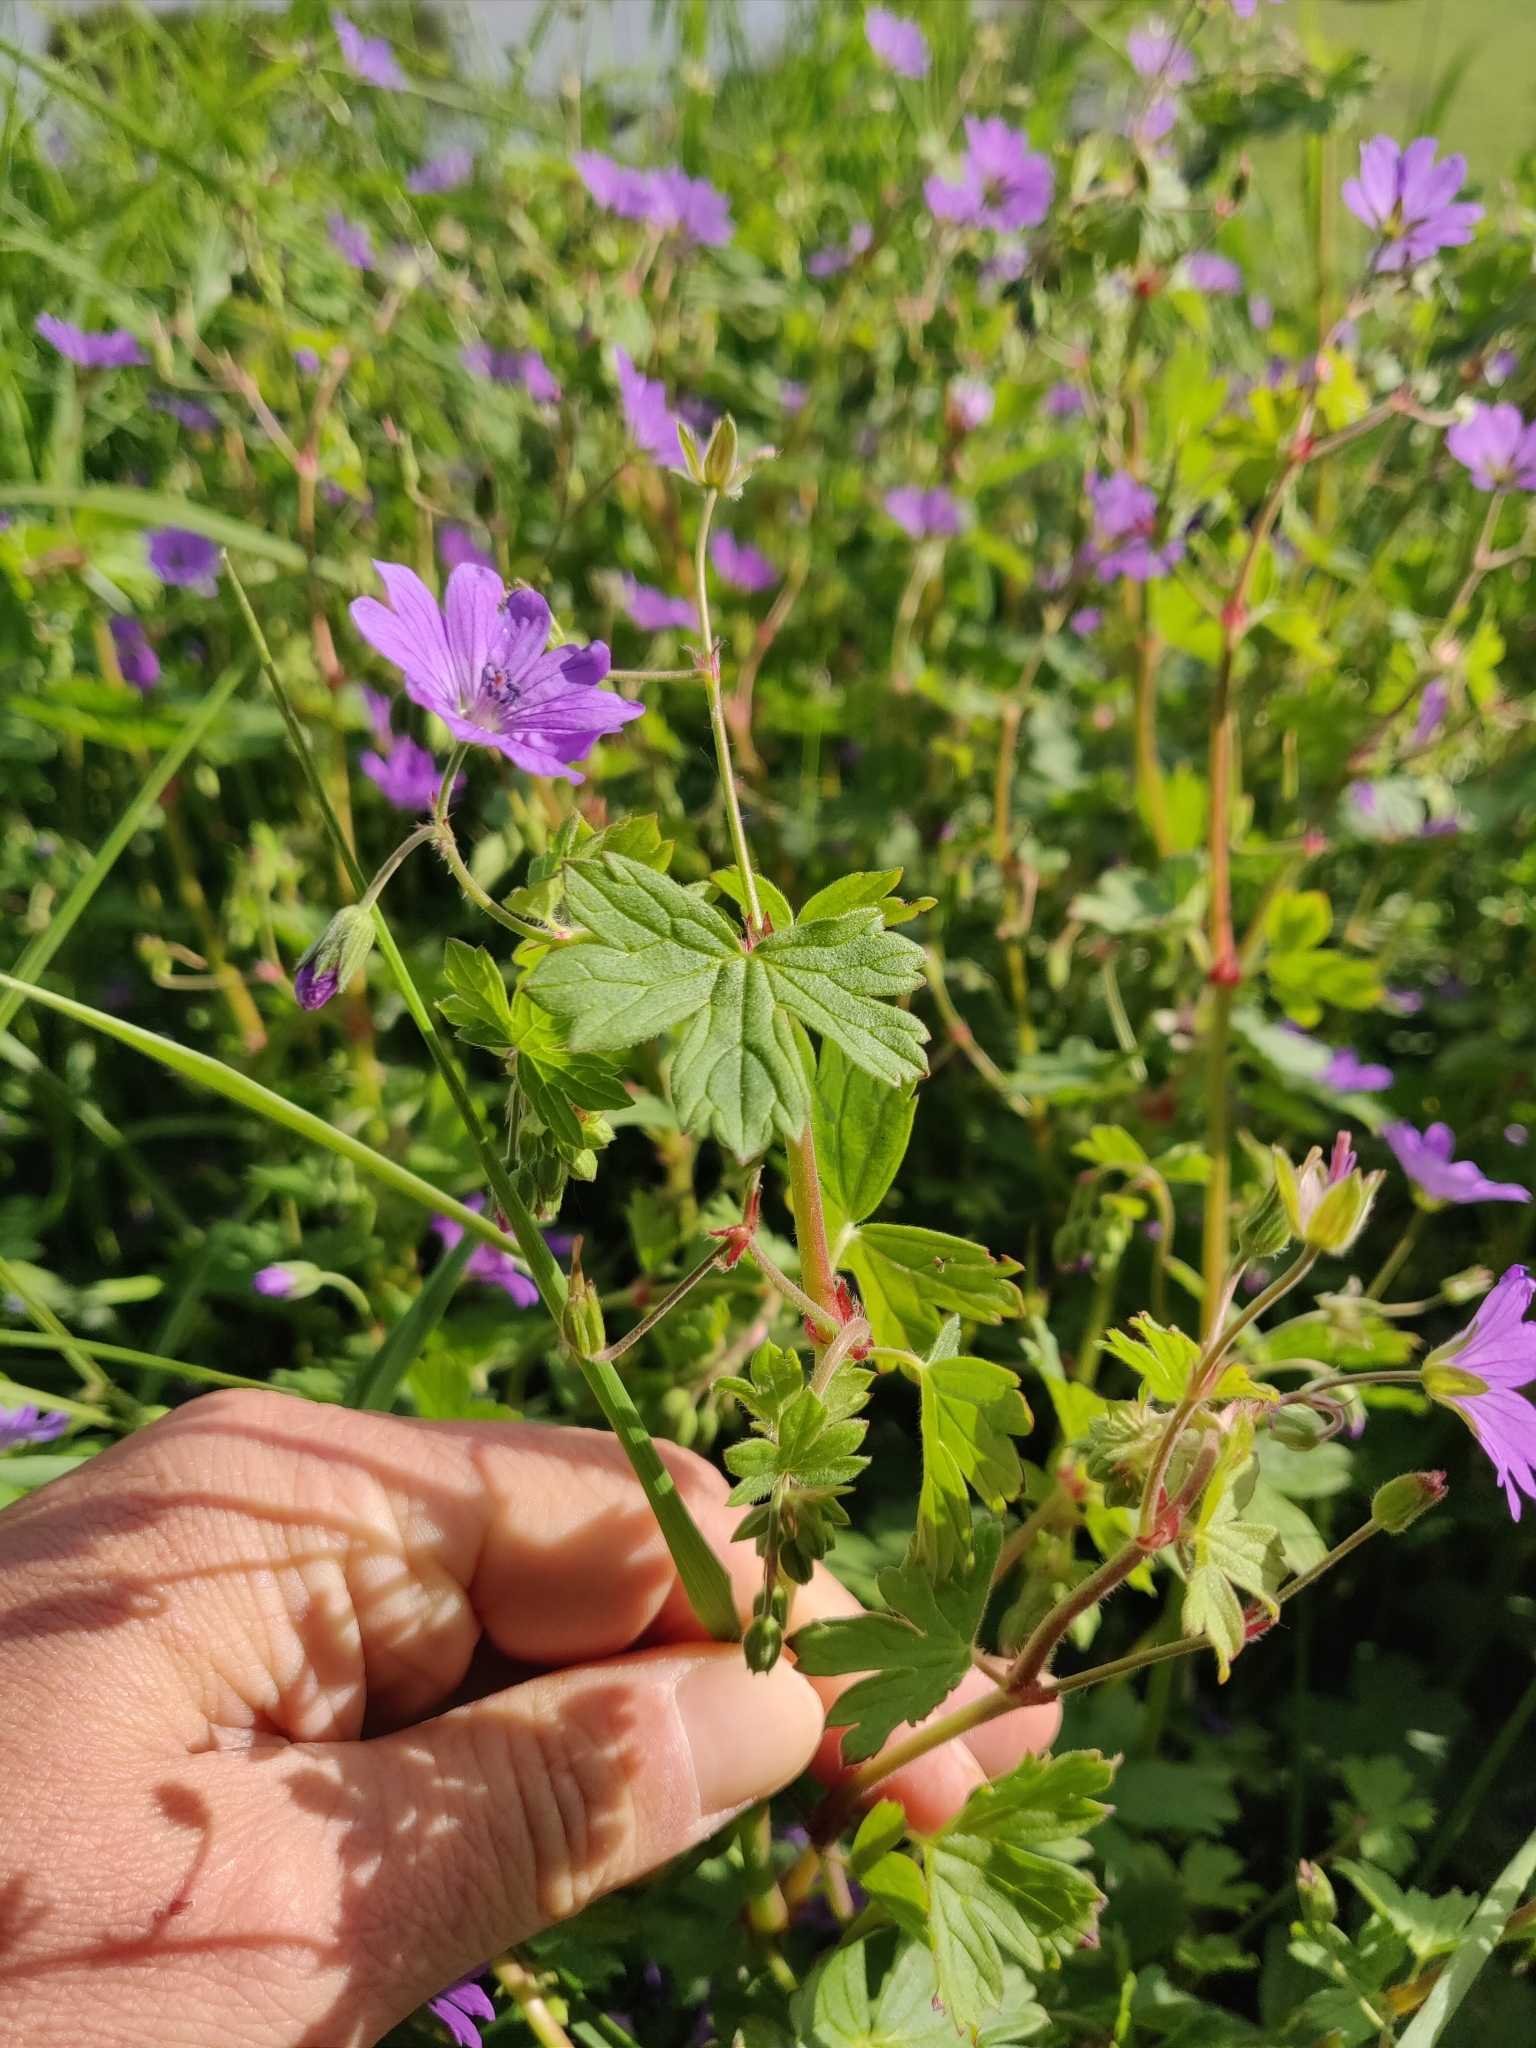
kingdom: Plantae
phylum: Tracheophyta
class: Magnoliopsida
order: Geraniales
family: Geraniaceae
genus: Geranium
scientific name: Geranium pyrenaicum
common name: Hedgerow crane's-bill
